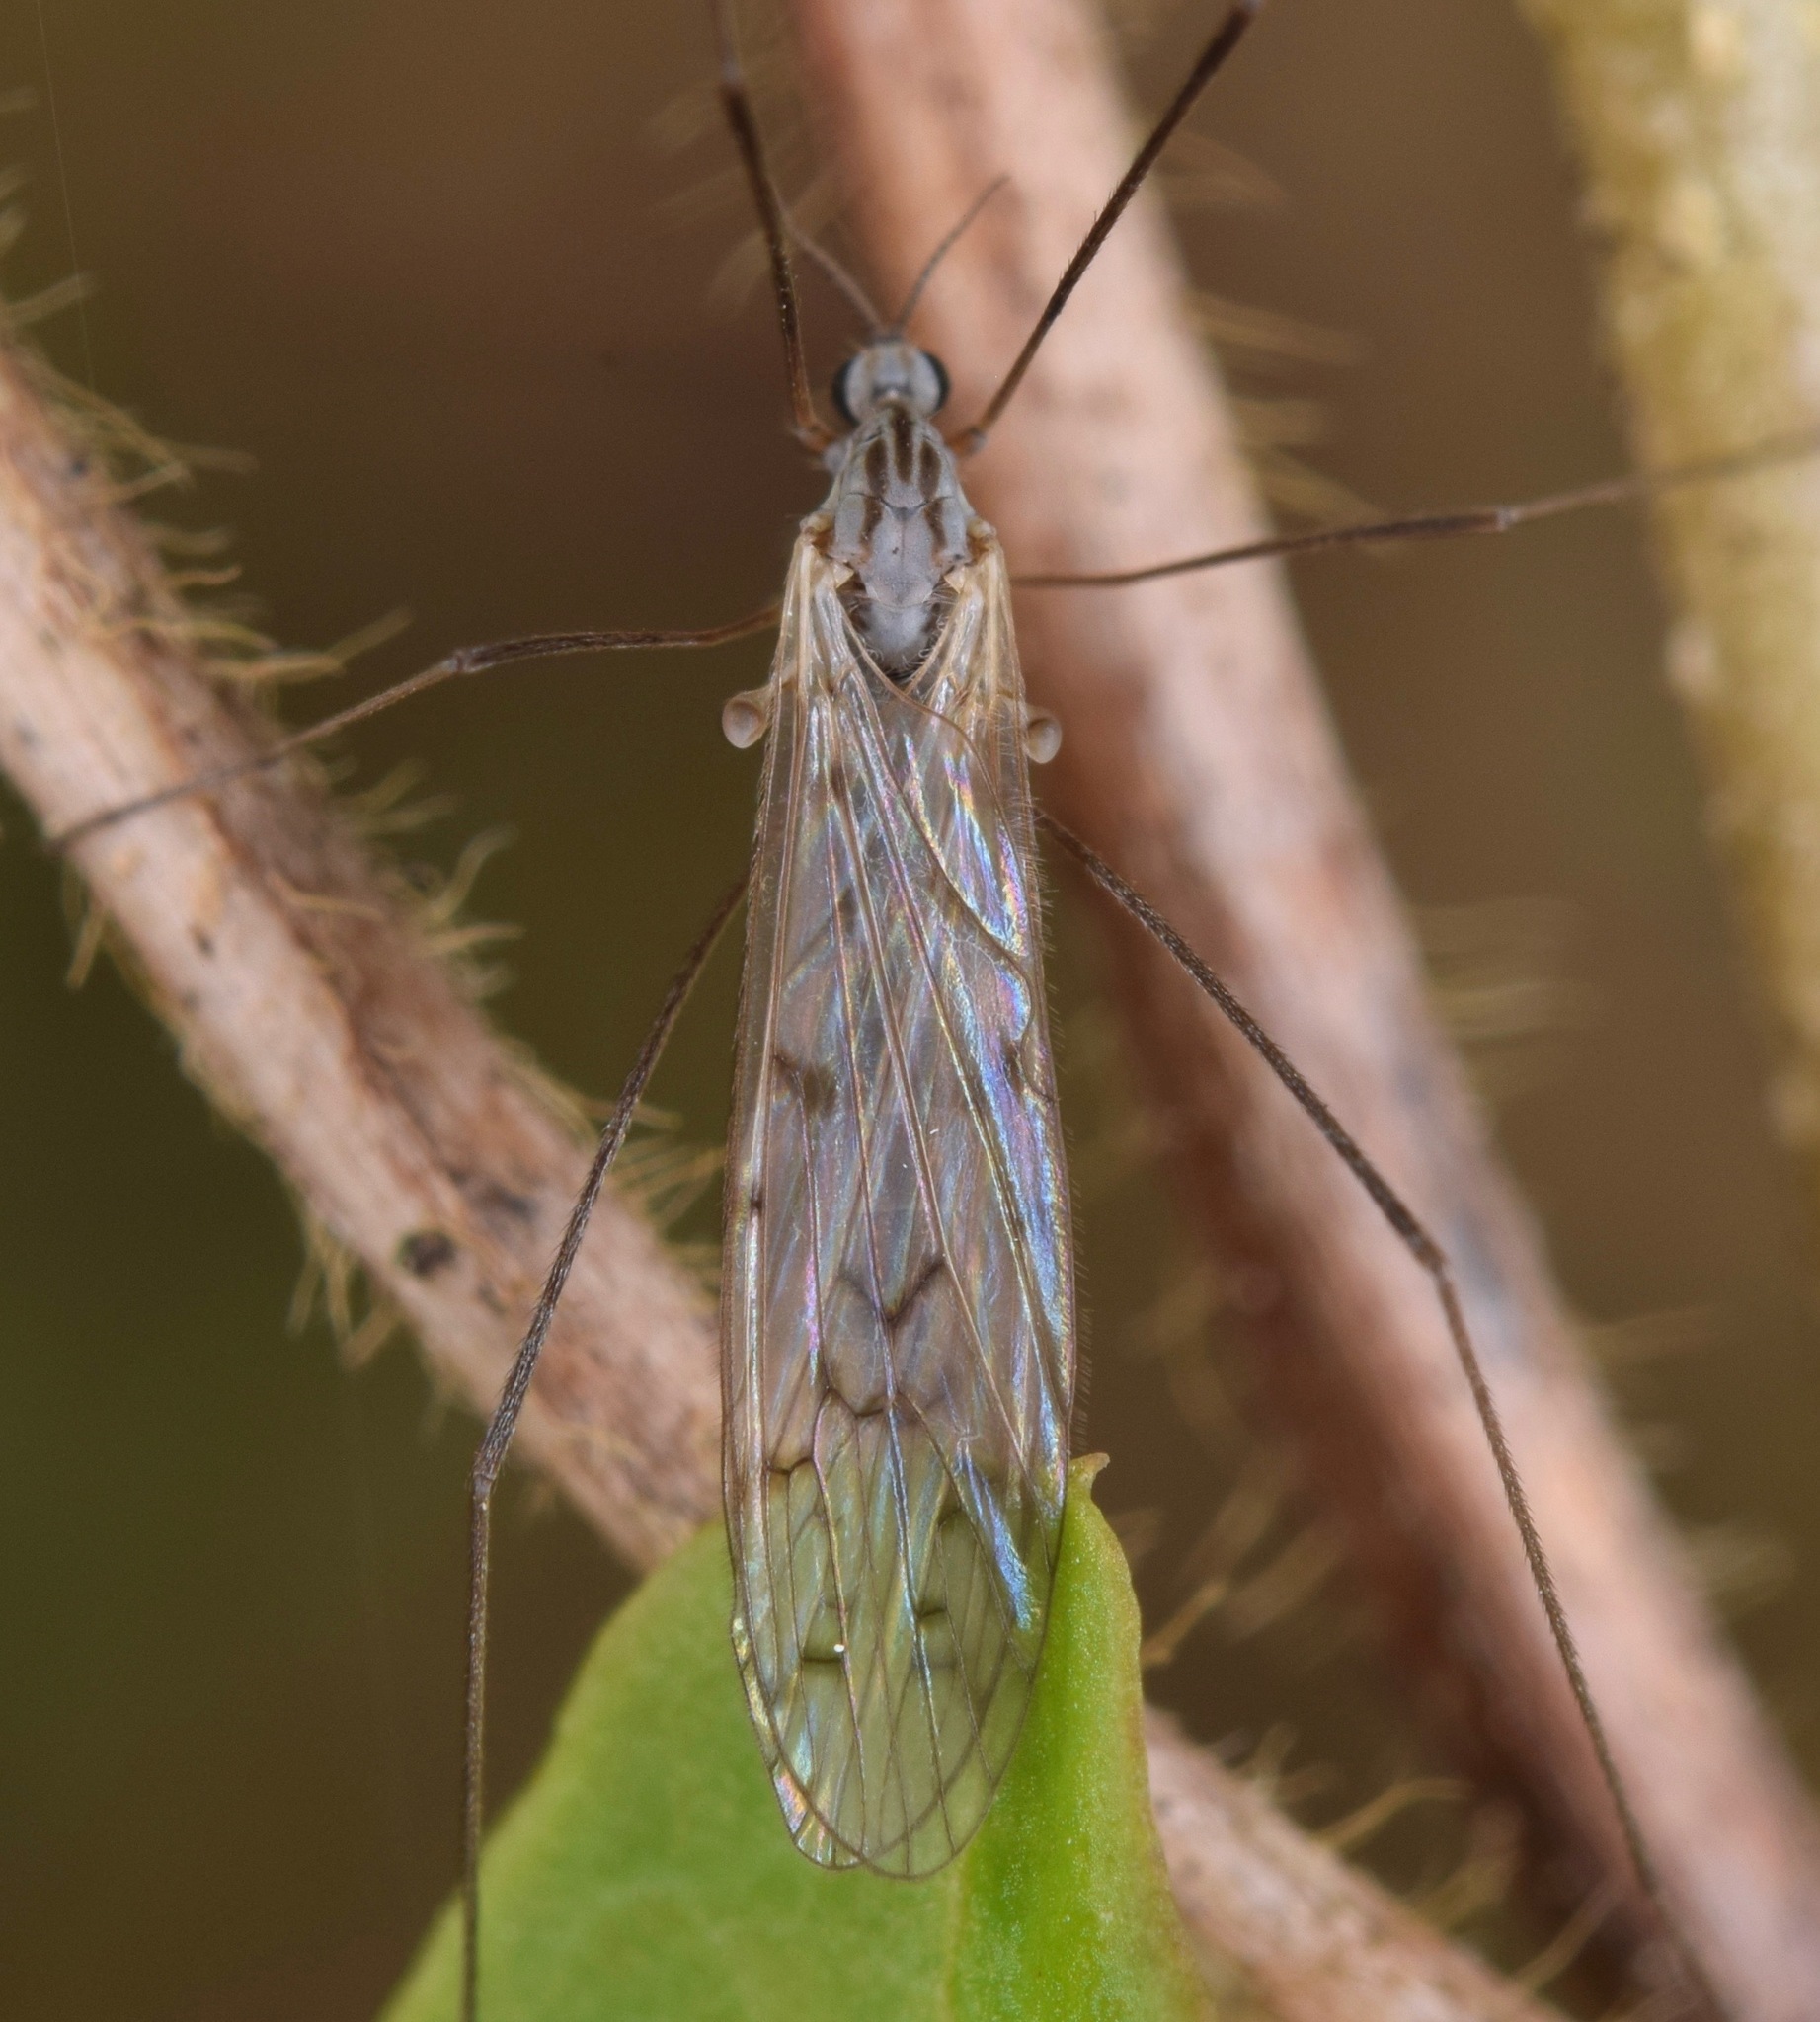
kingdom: Animalia
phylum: Arthropoda
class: Insecta
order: Diptera
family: Limoniidae
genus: Symplecta
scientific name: Symplecta cana
